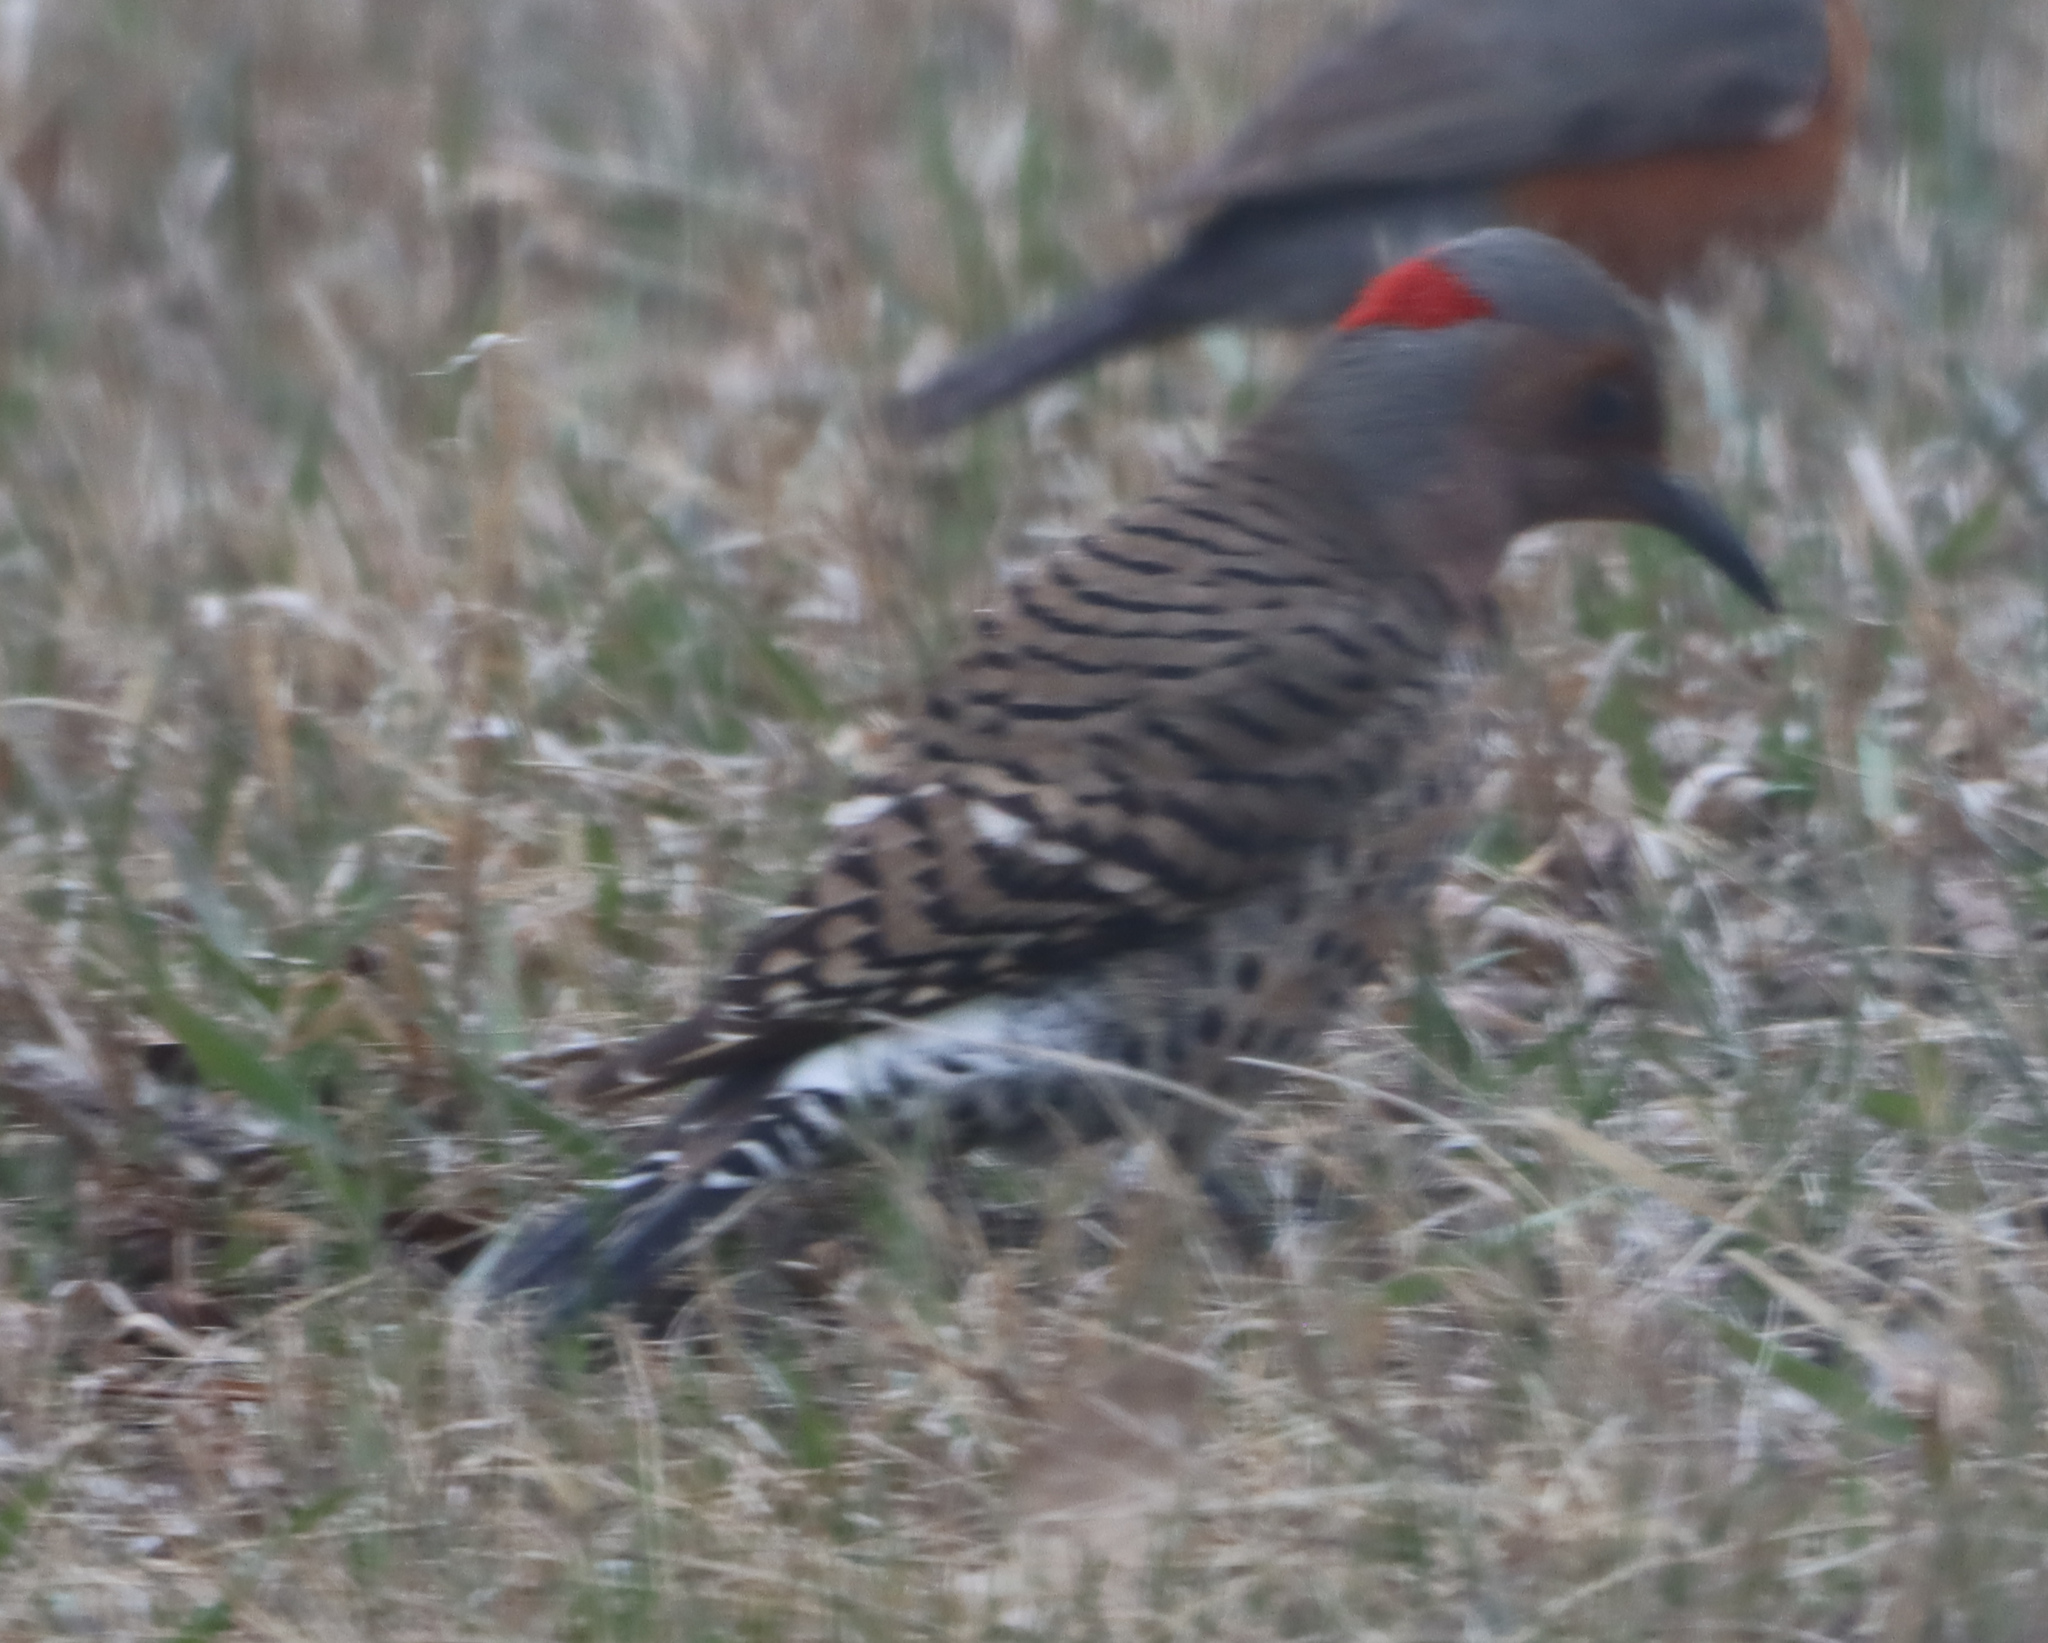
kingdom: Animalia
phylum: Chordata
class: Aves
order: Piciformes
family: Picidae
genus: Colaptes
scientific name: Colaptes auratus
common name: Northern flicker
